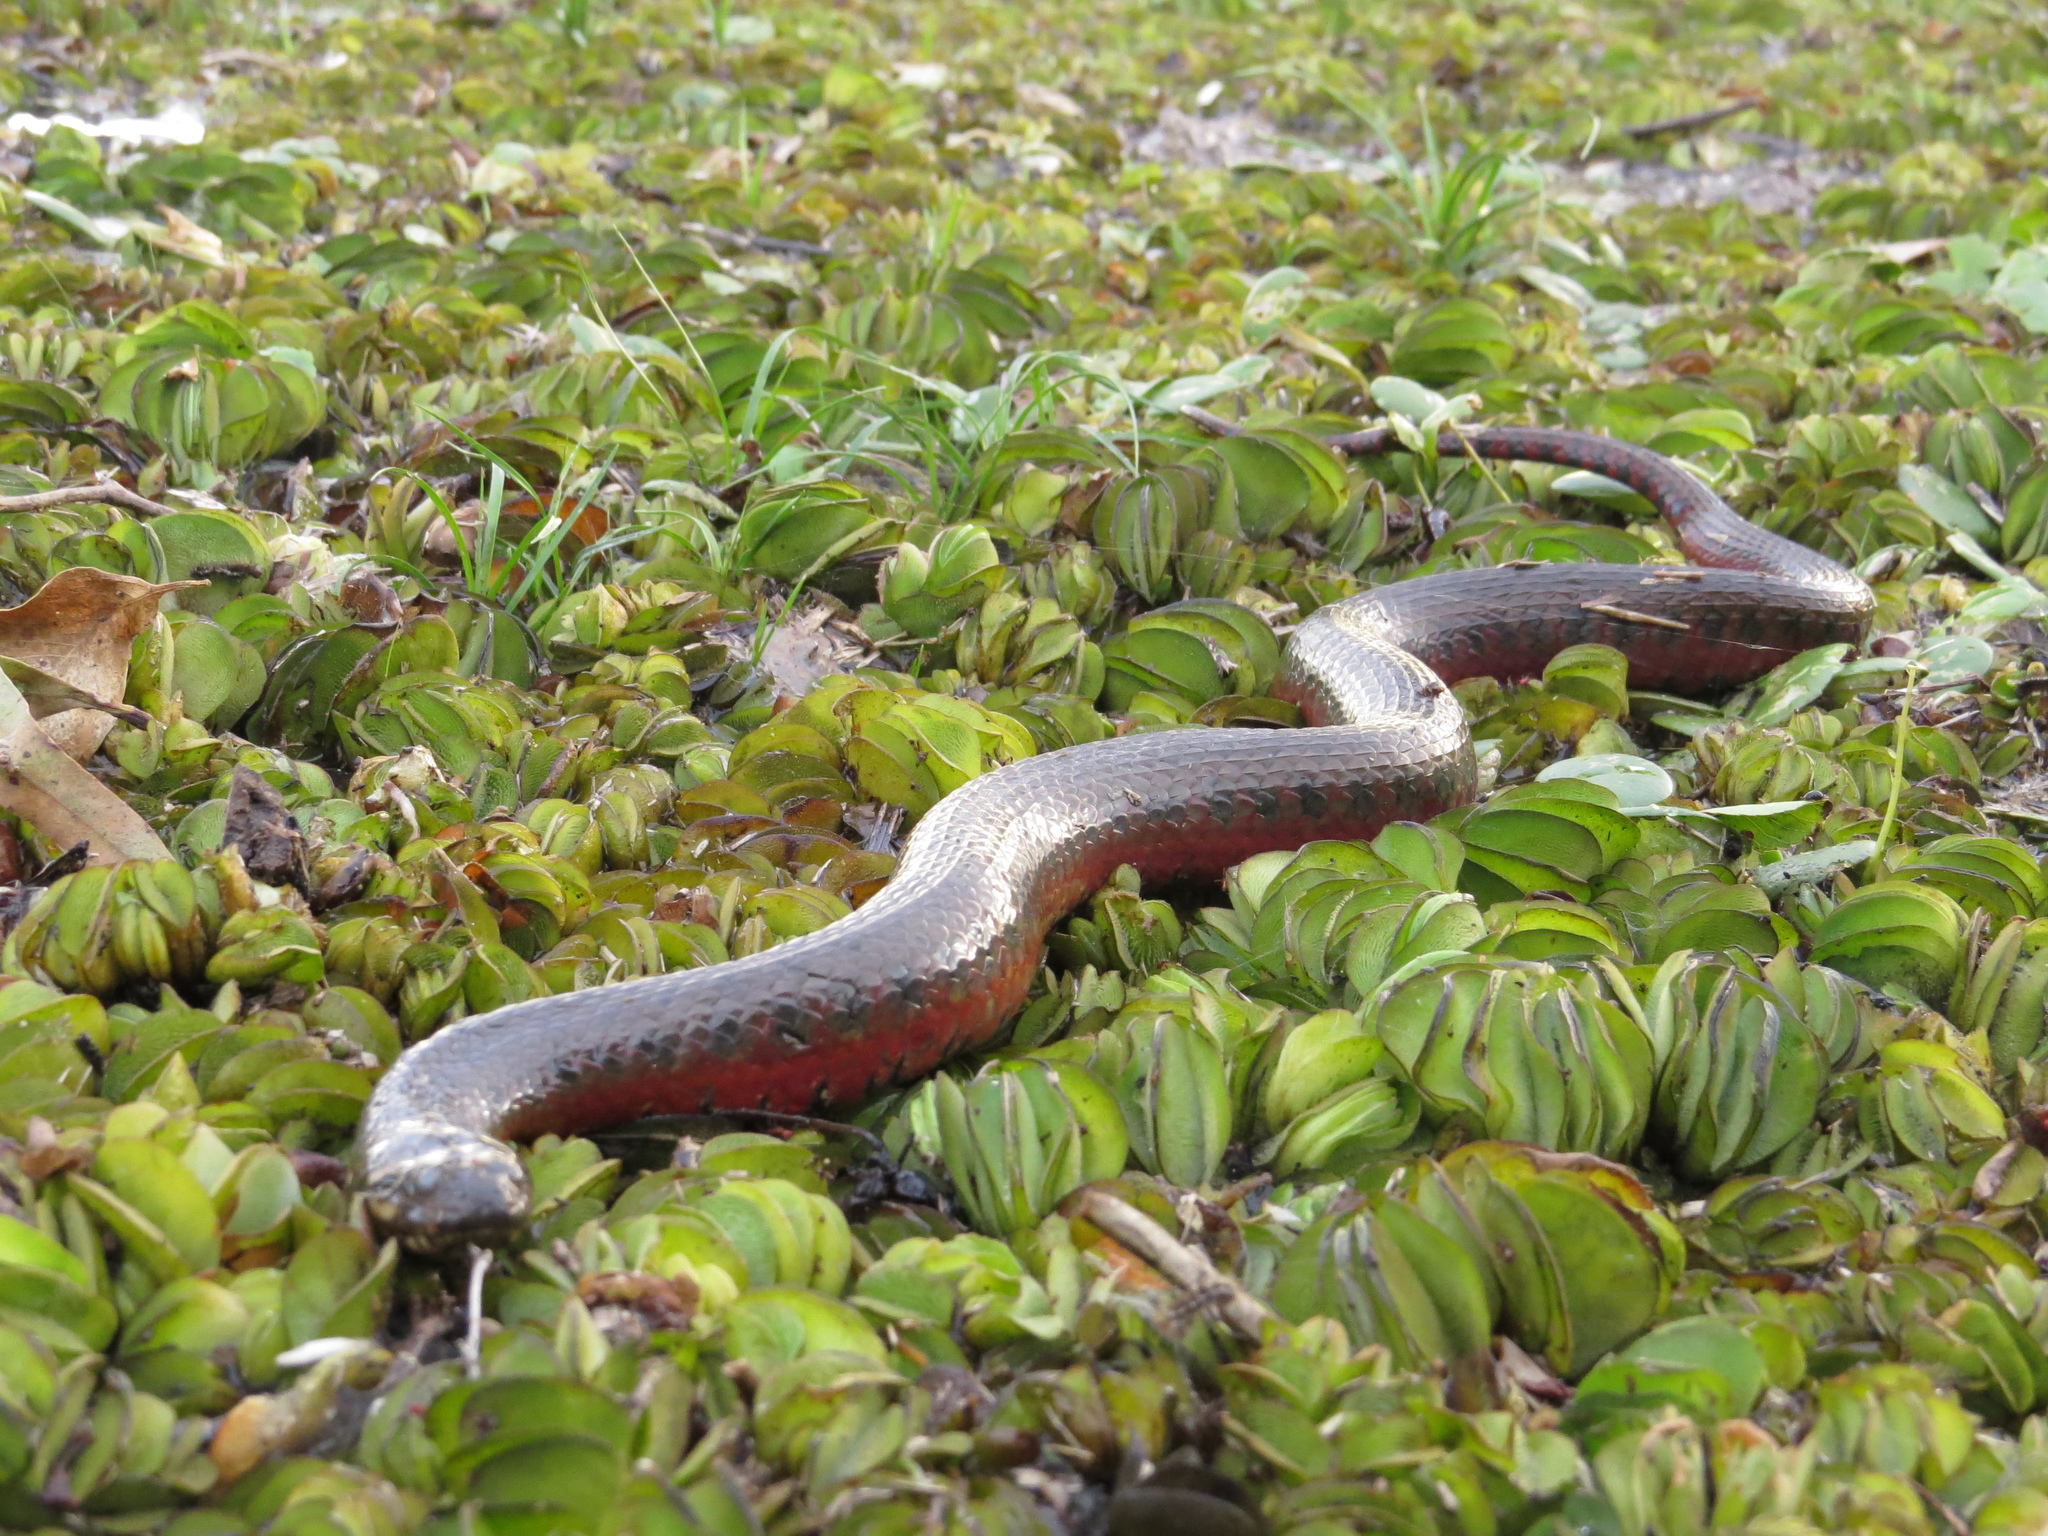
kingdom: Animalia
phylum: Chordata
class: Squamata
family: Colubridae
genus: Helicops
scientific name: Helicops leopardinus
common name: Leopard keelback
